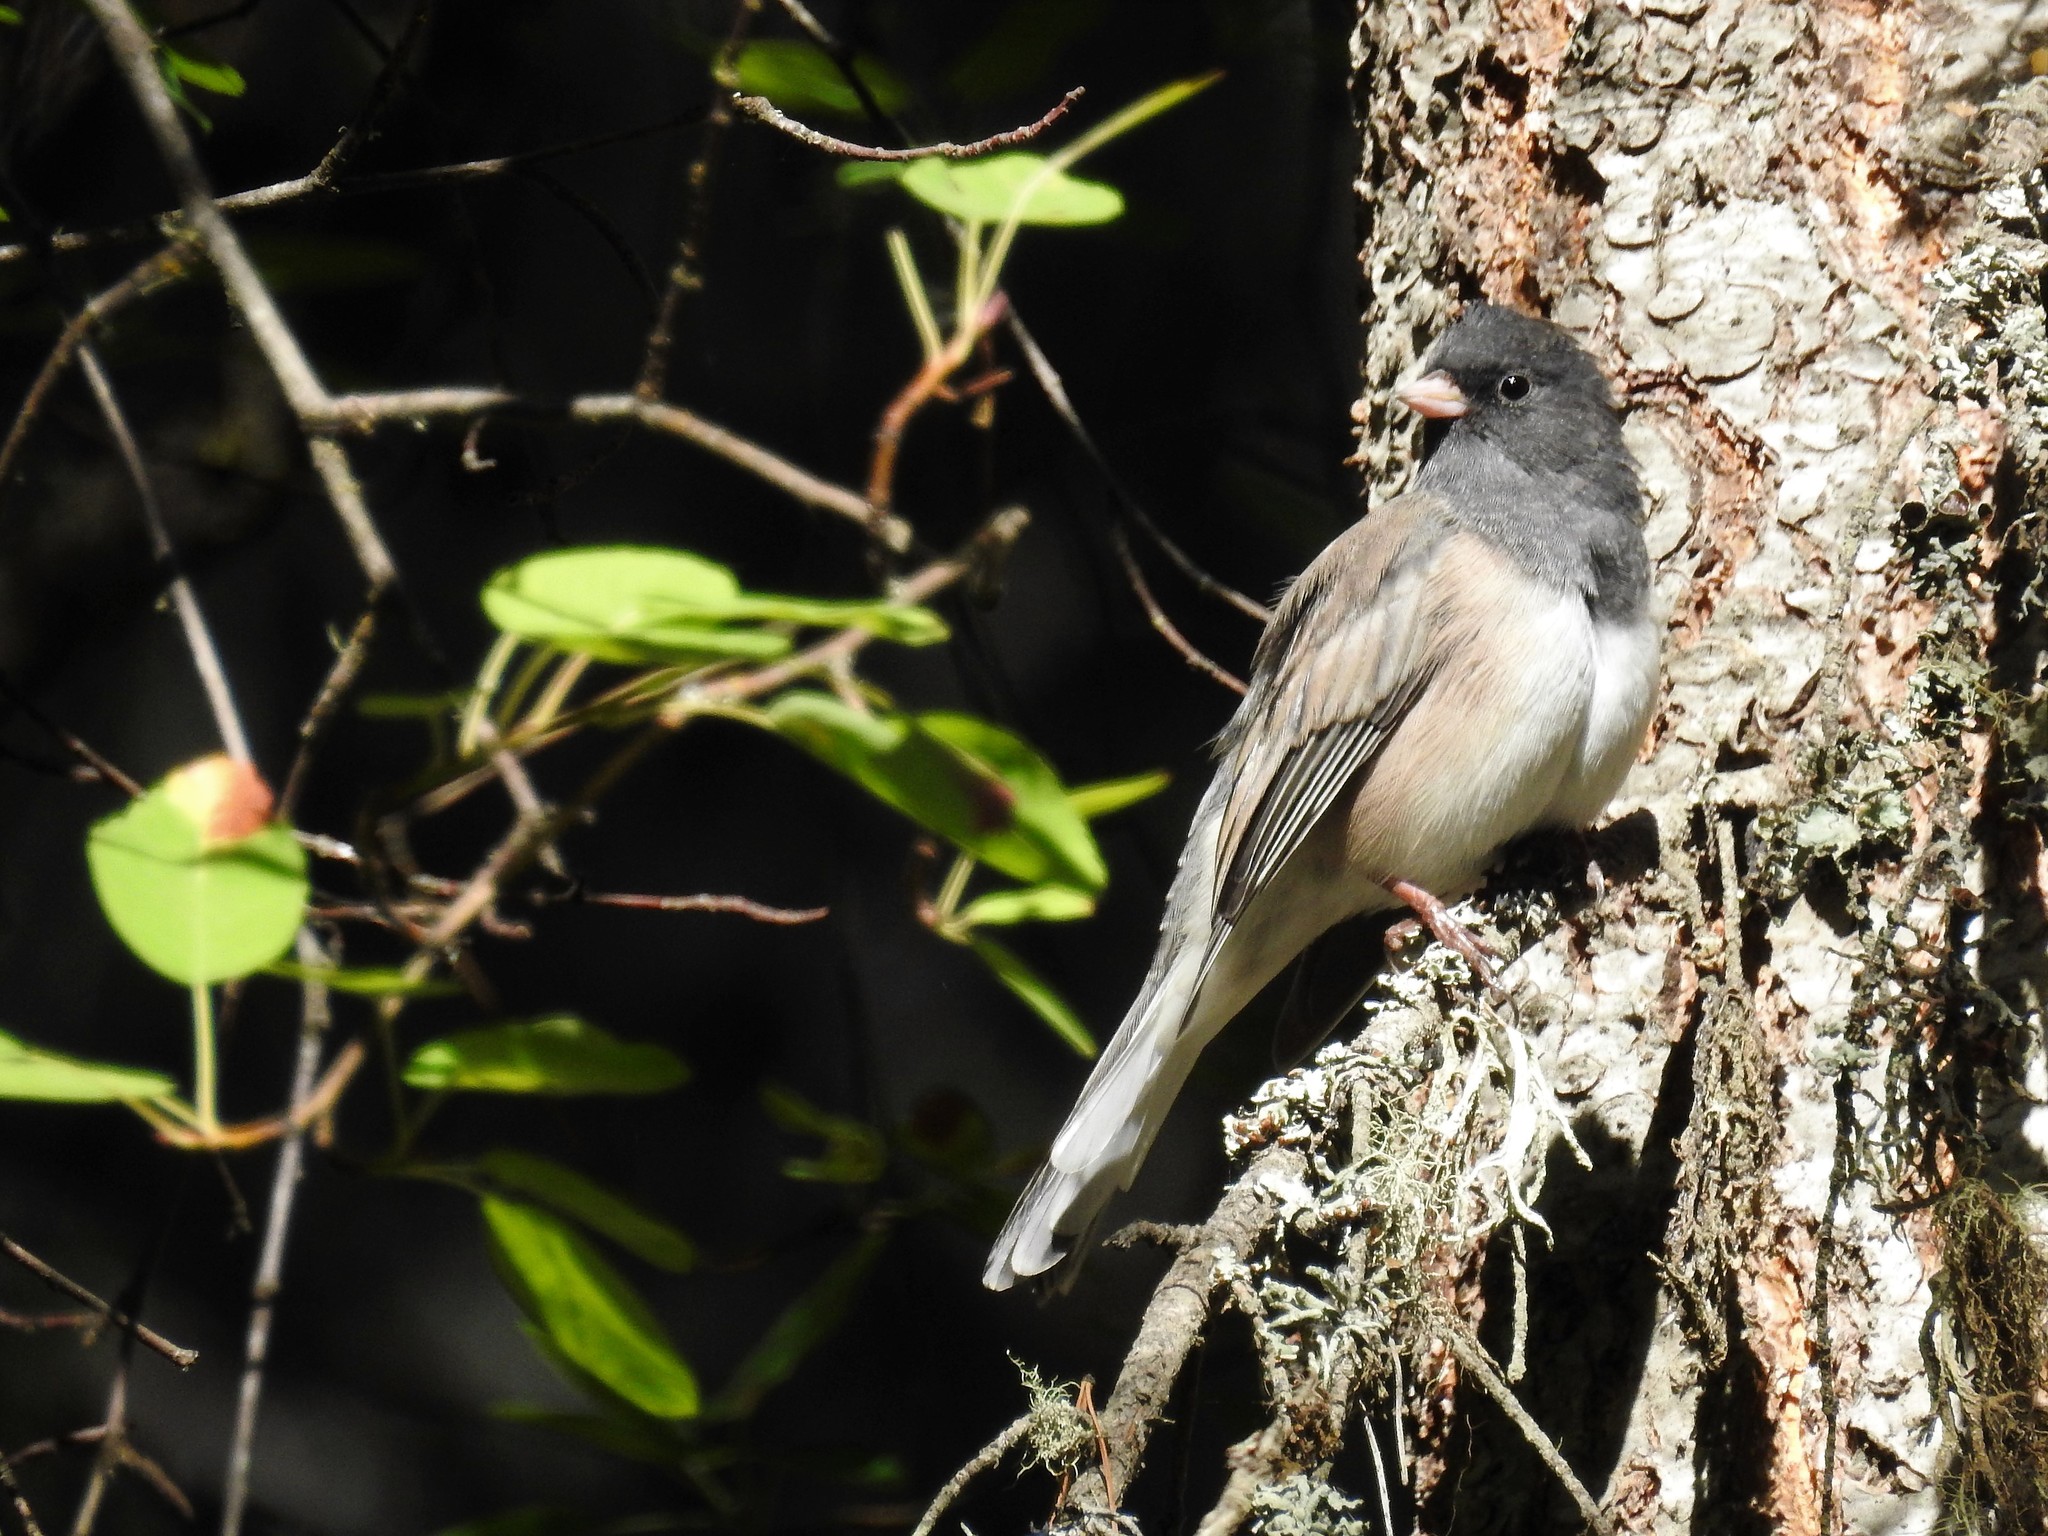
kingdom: Animalia
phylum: Chordata
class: Aves
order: Passeriformes
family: Passerellidae
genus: Junco
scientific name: Junco hyemalis
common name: Dark-eyed junco
